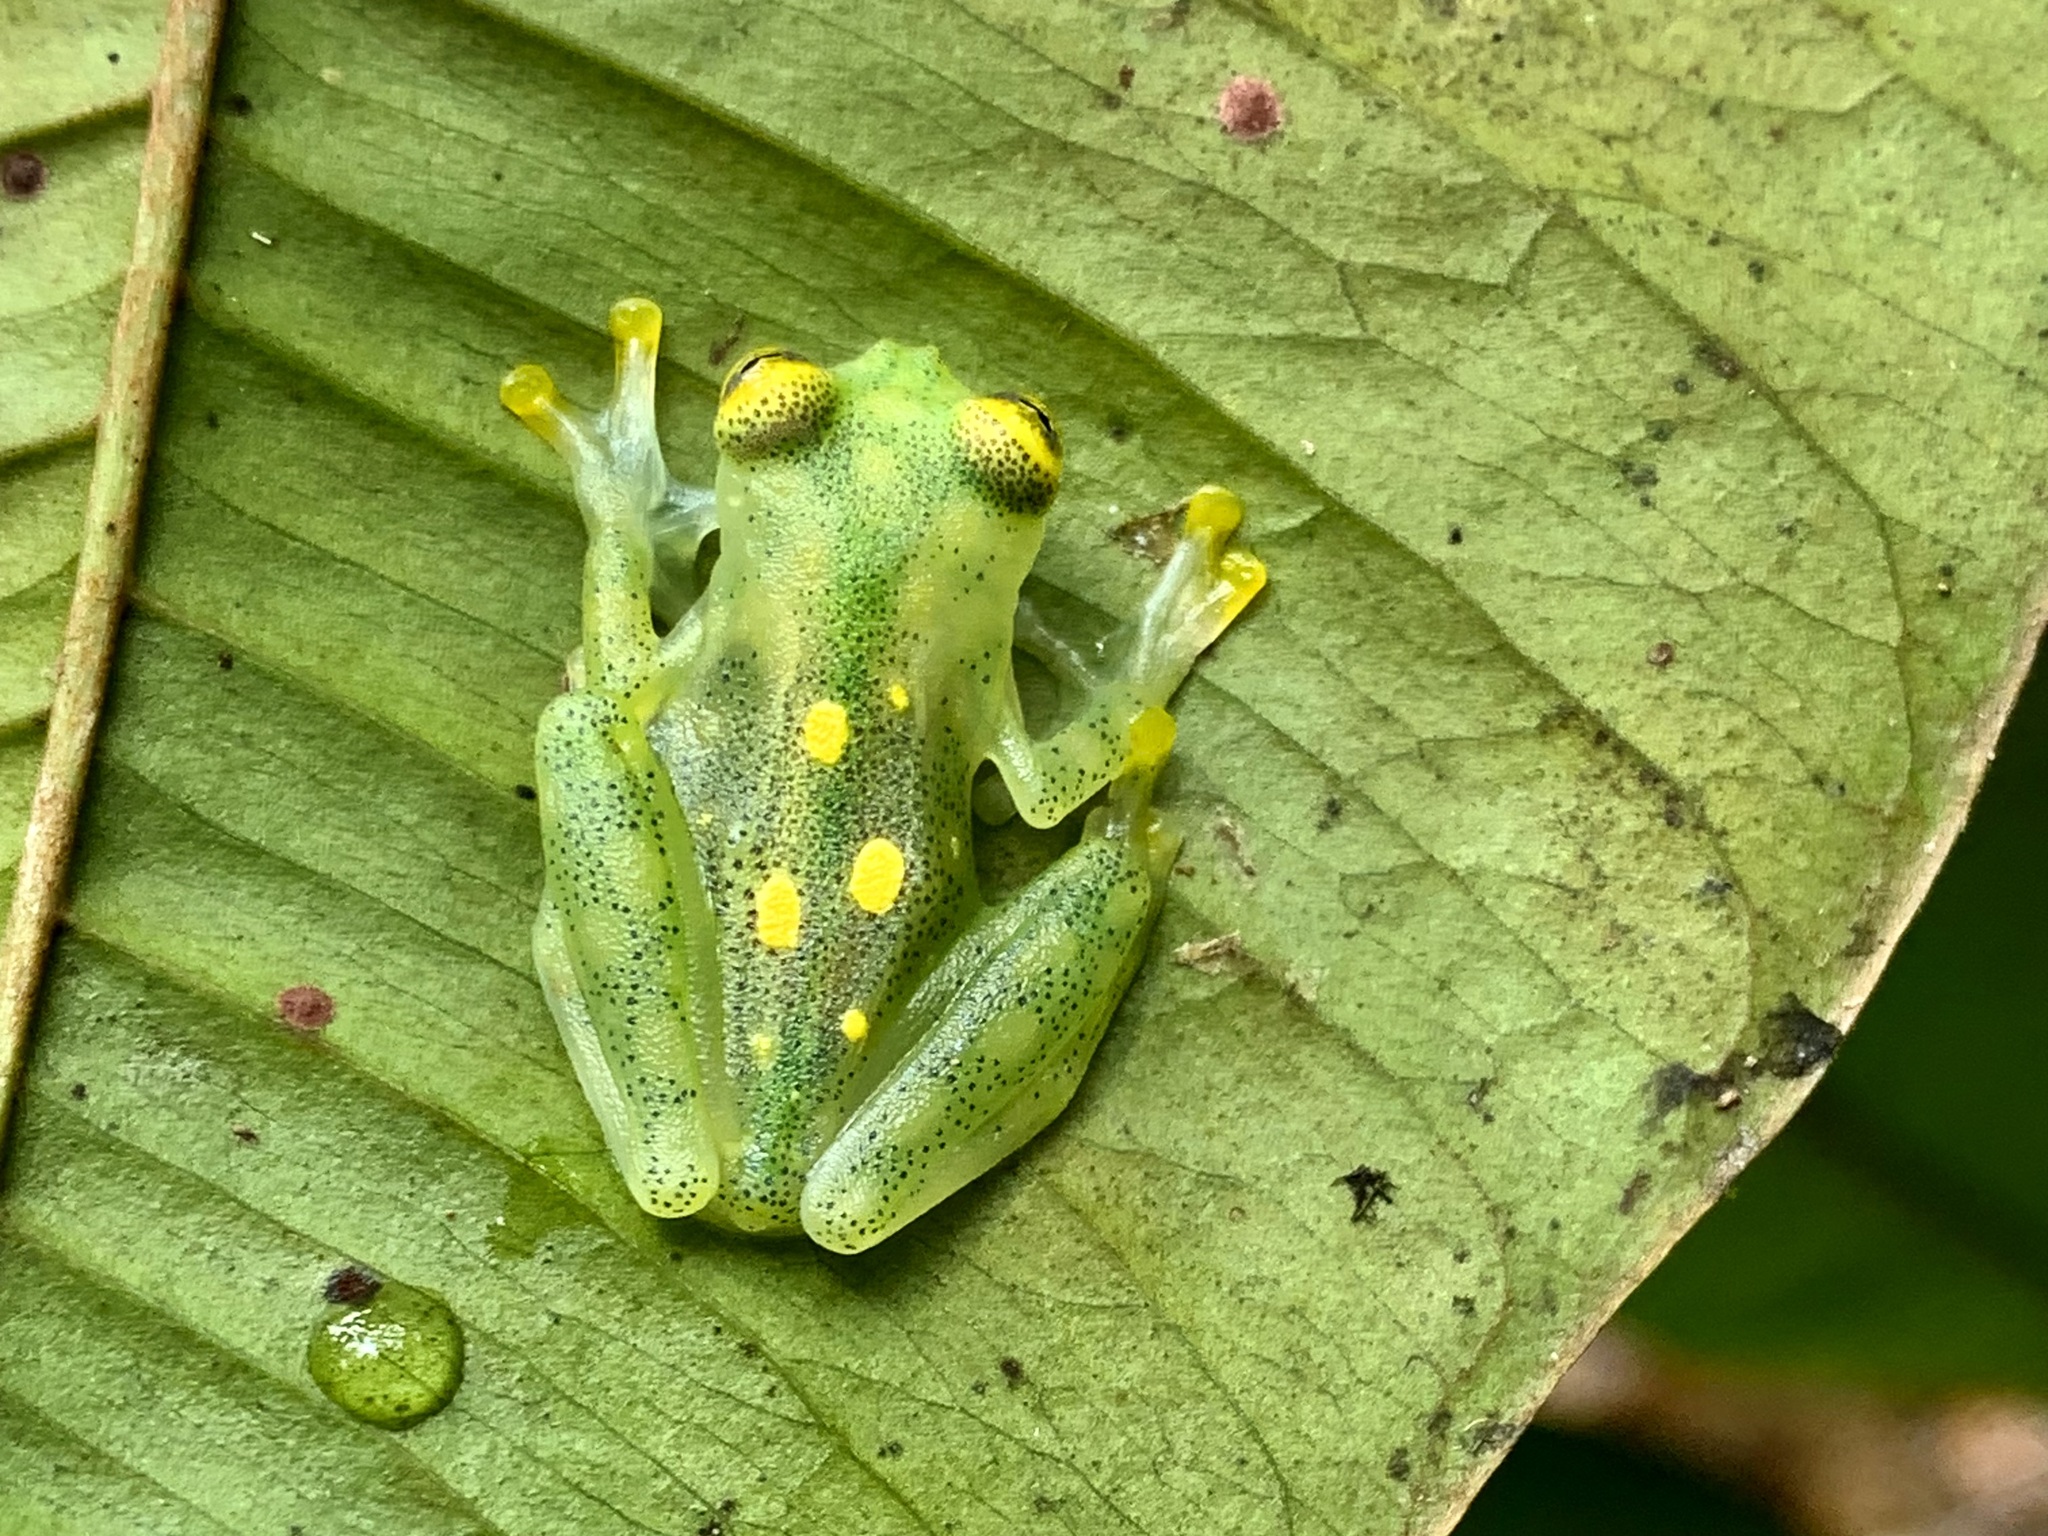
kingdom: Animalia
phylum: Chordata
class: Amphibia
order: Anura
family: Centrolenidae
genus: Hyalinobatrachium
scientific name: Hyalinobatrachium aureoguttatum
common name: Atrato glass frog
